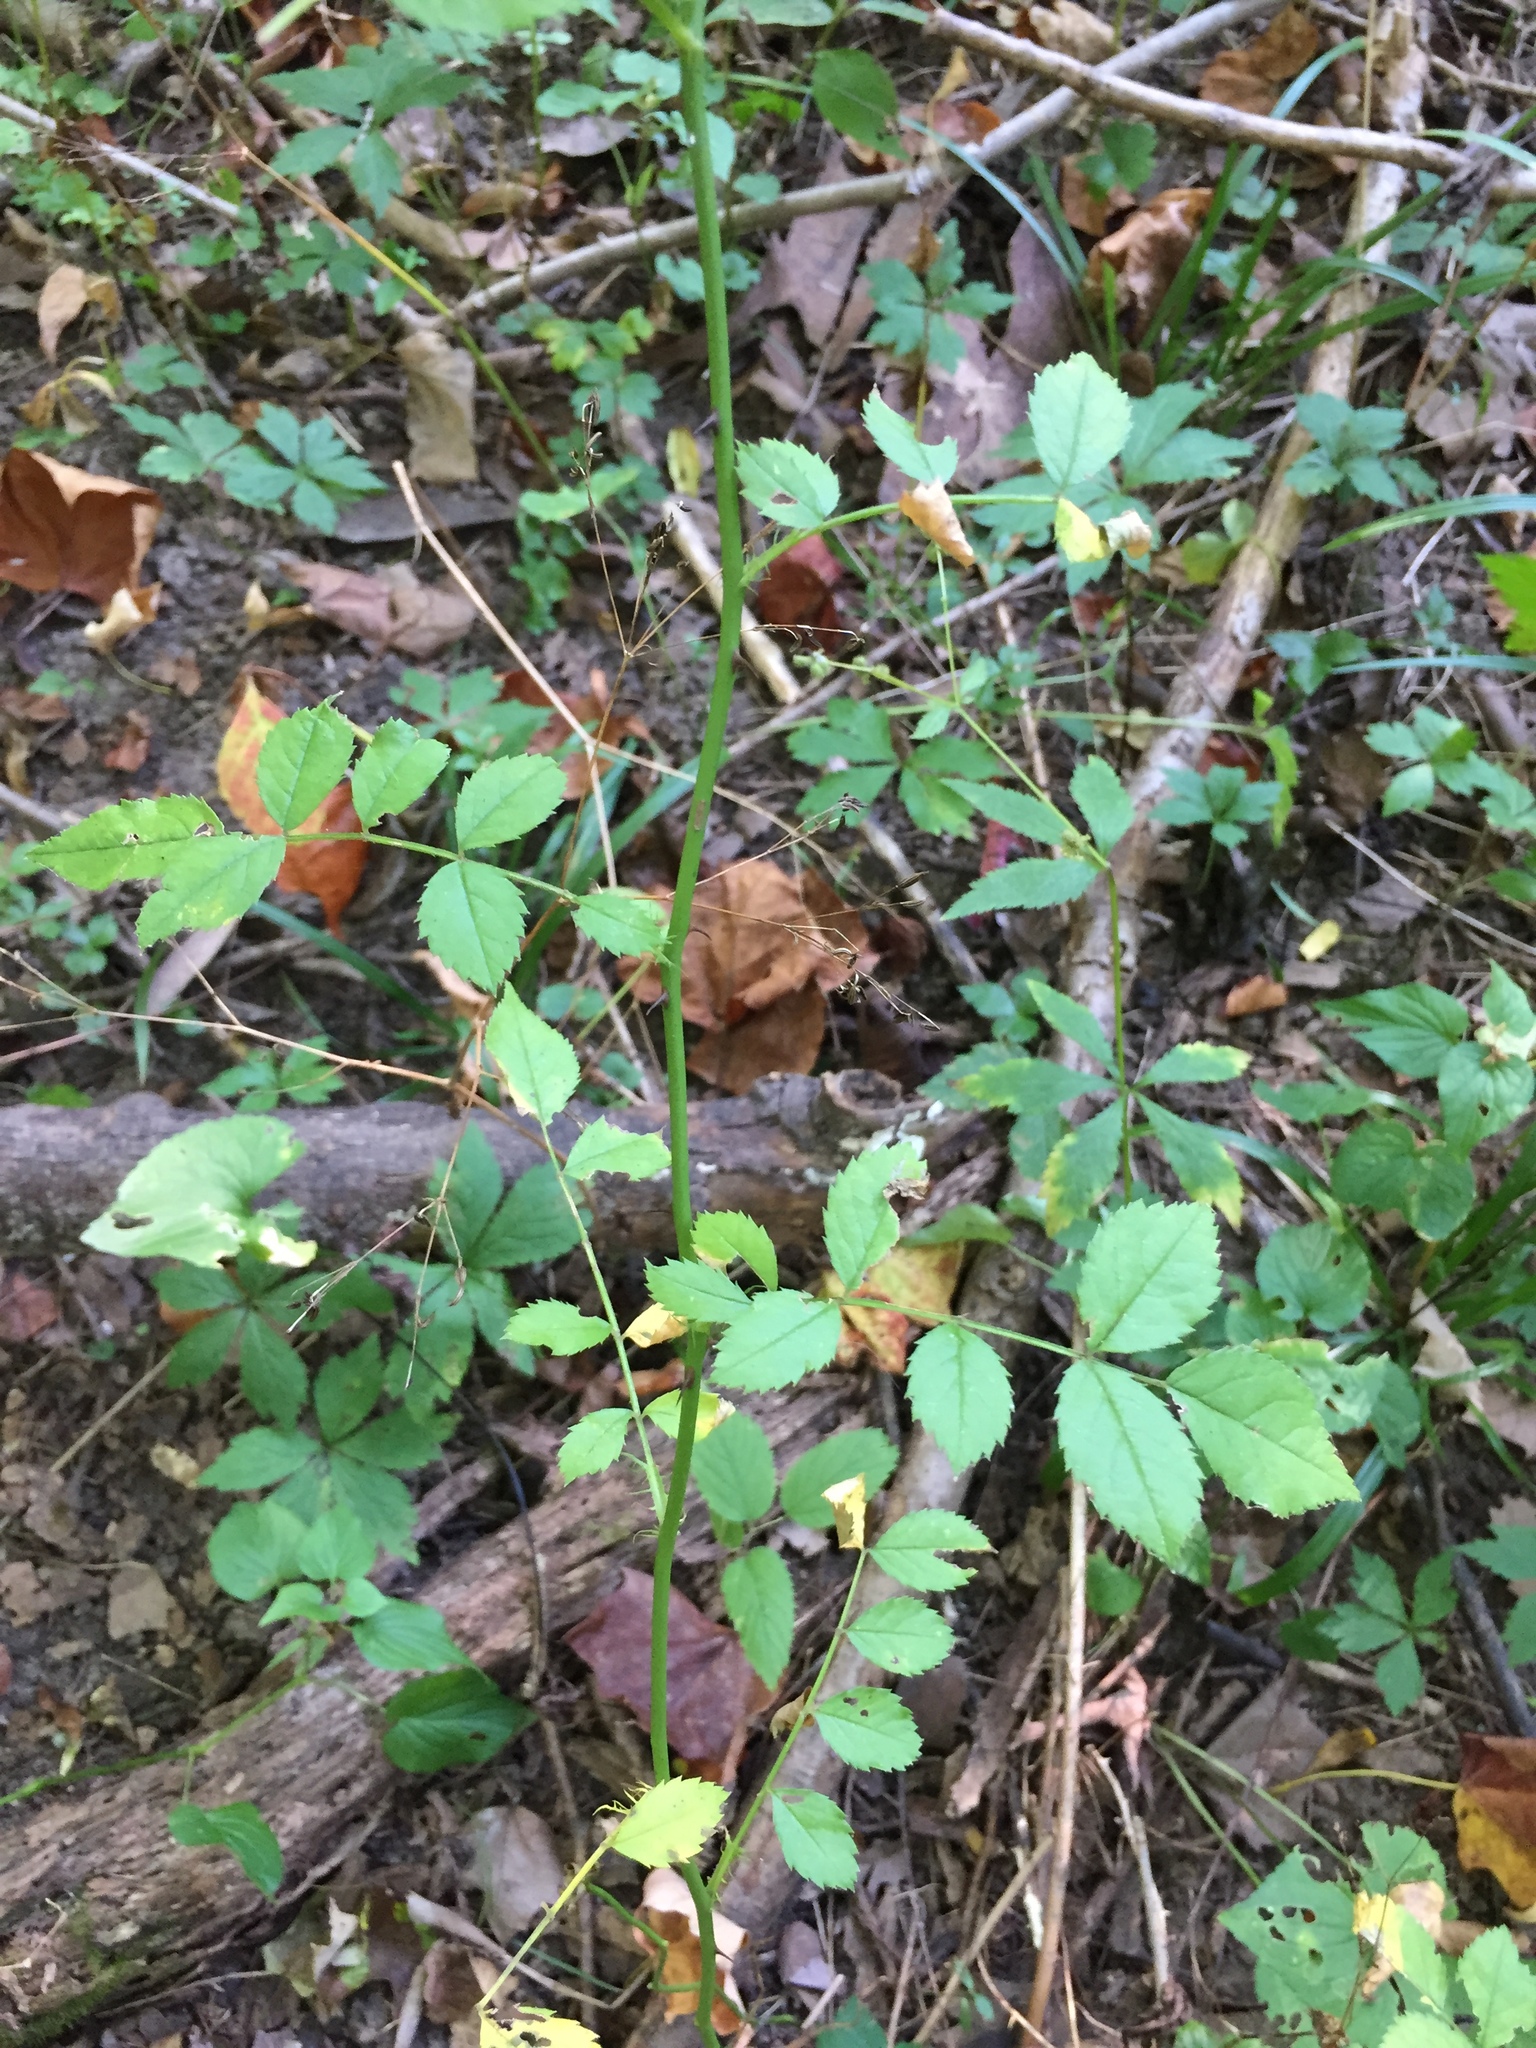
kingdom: Plantae
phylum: Tracheophyta
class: Magnoliopsida
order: Rosales
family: Rosaceae
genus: Rosa
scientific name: Rosa multiflora
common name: Multiflora rose
